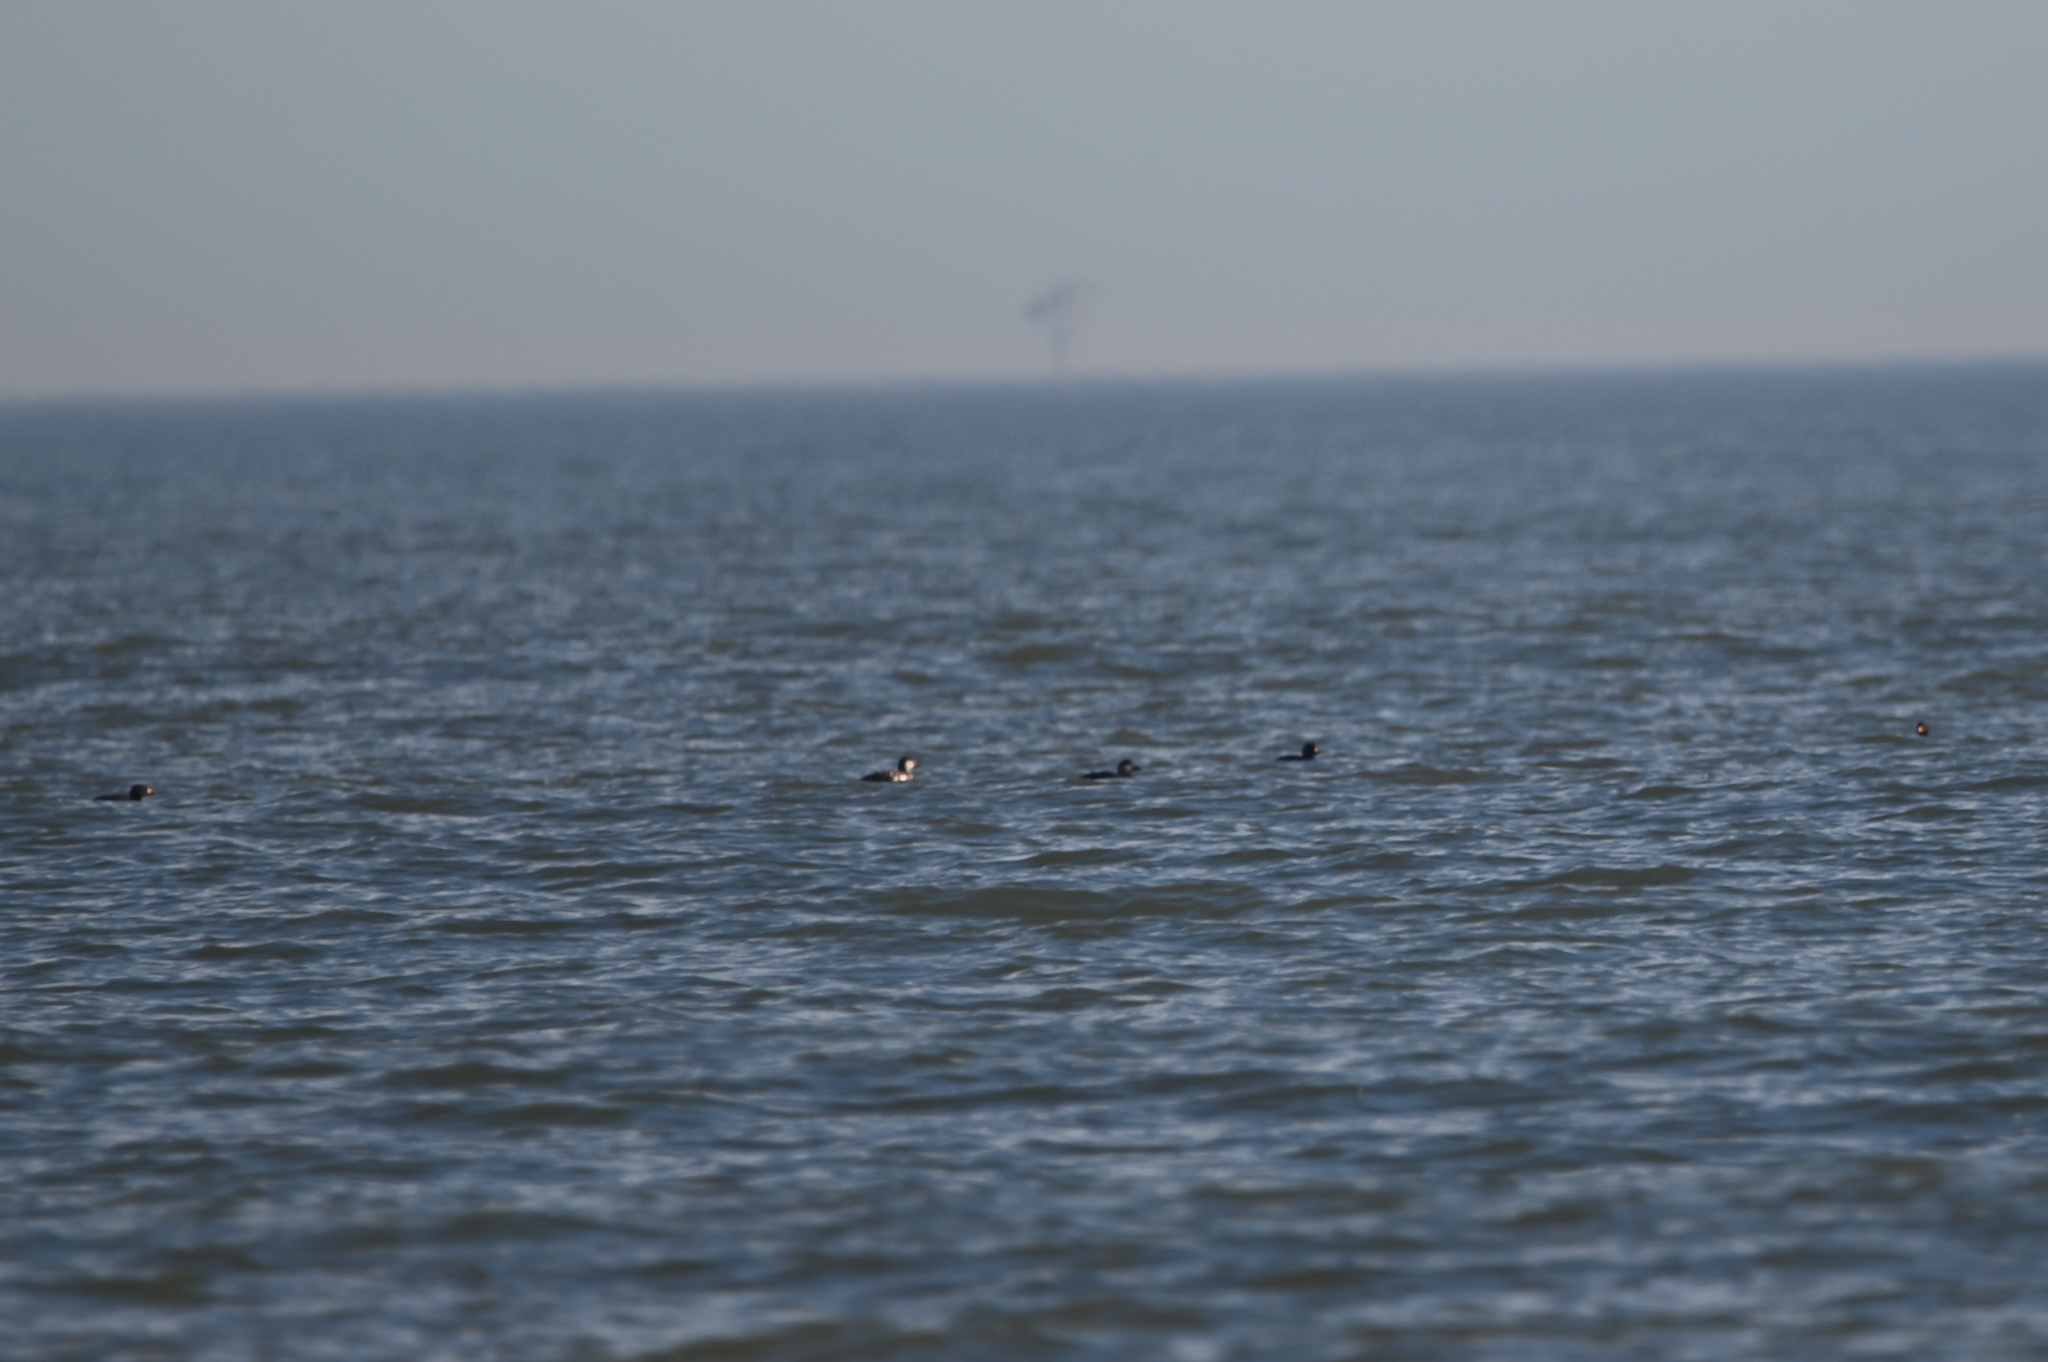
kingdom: Animalia
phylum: Chordata
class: Aves
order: Anseriformes
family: Anatidae
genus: Melanitta
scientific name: Melanitta americana
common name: Black scoter
